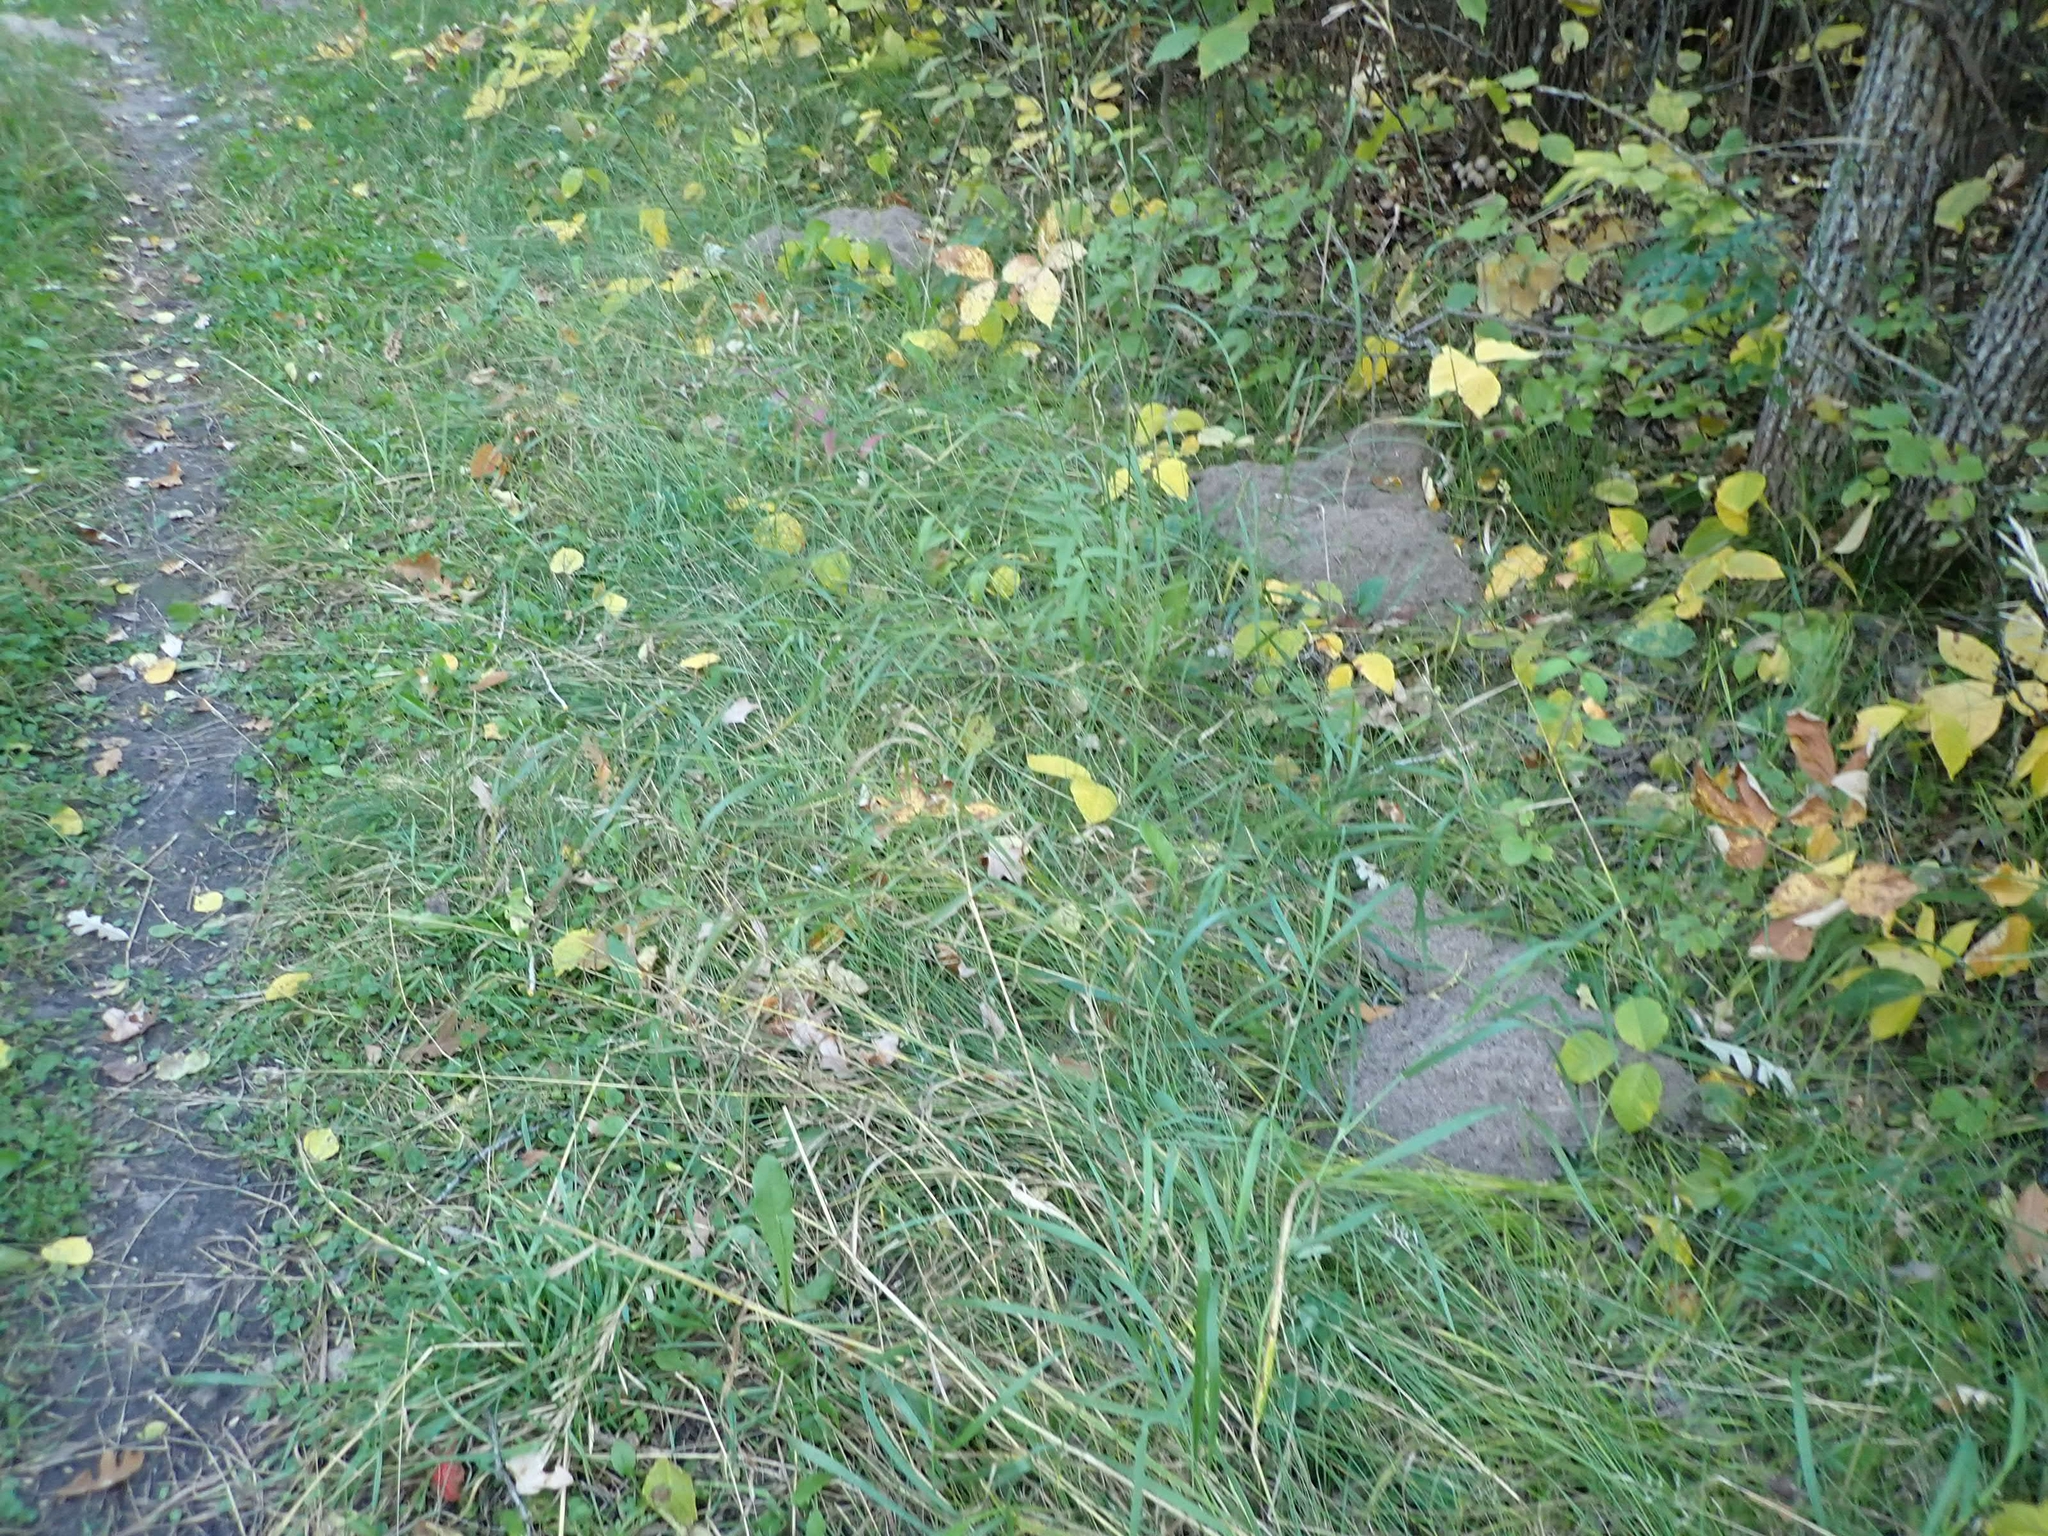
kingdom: Animalia
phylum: Chordata
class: Mammalia
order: Rodentia
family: Geomyidae
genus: Thomomys
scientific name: Thomomys talpoides
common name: Northern pocket gopher
